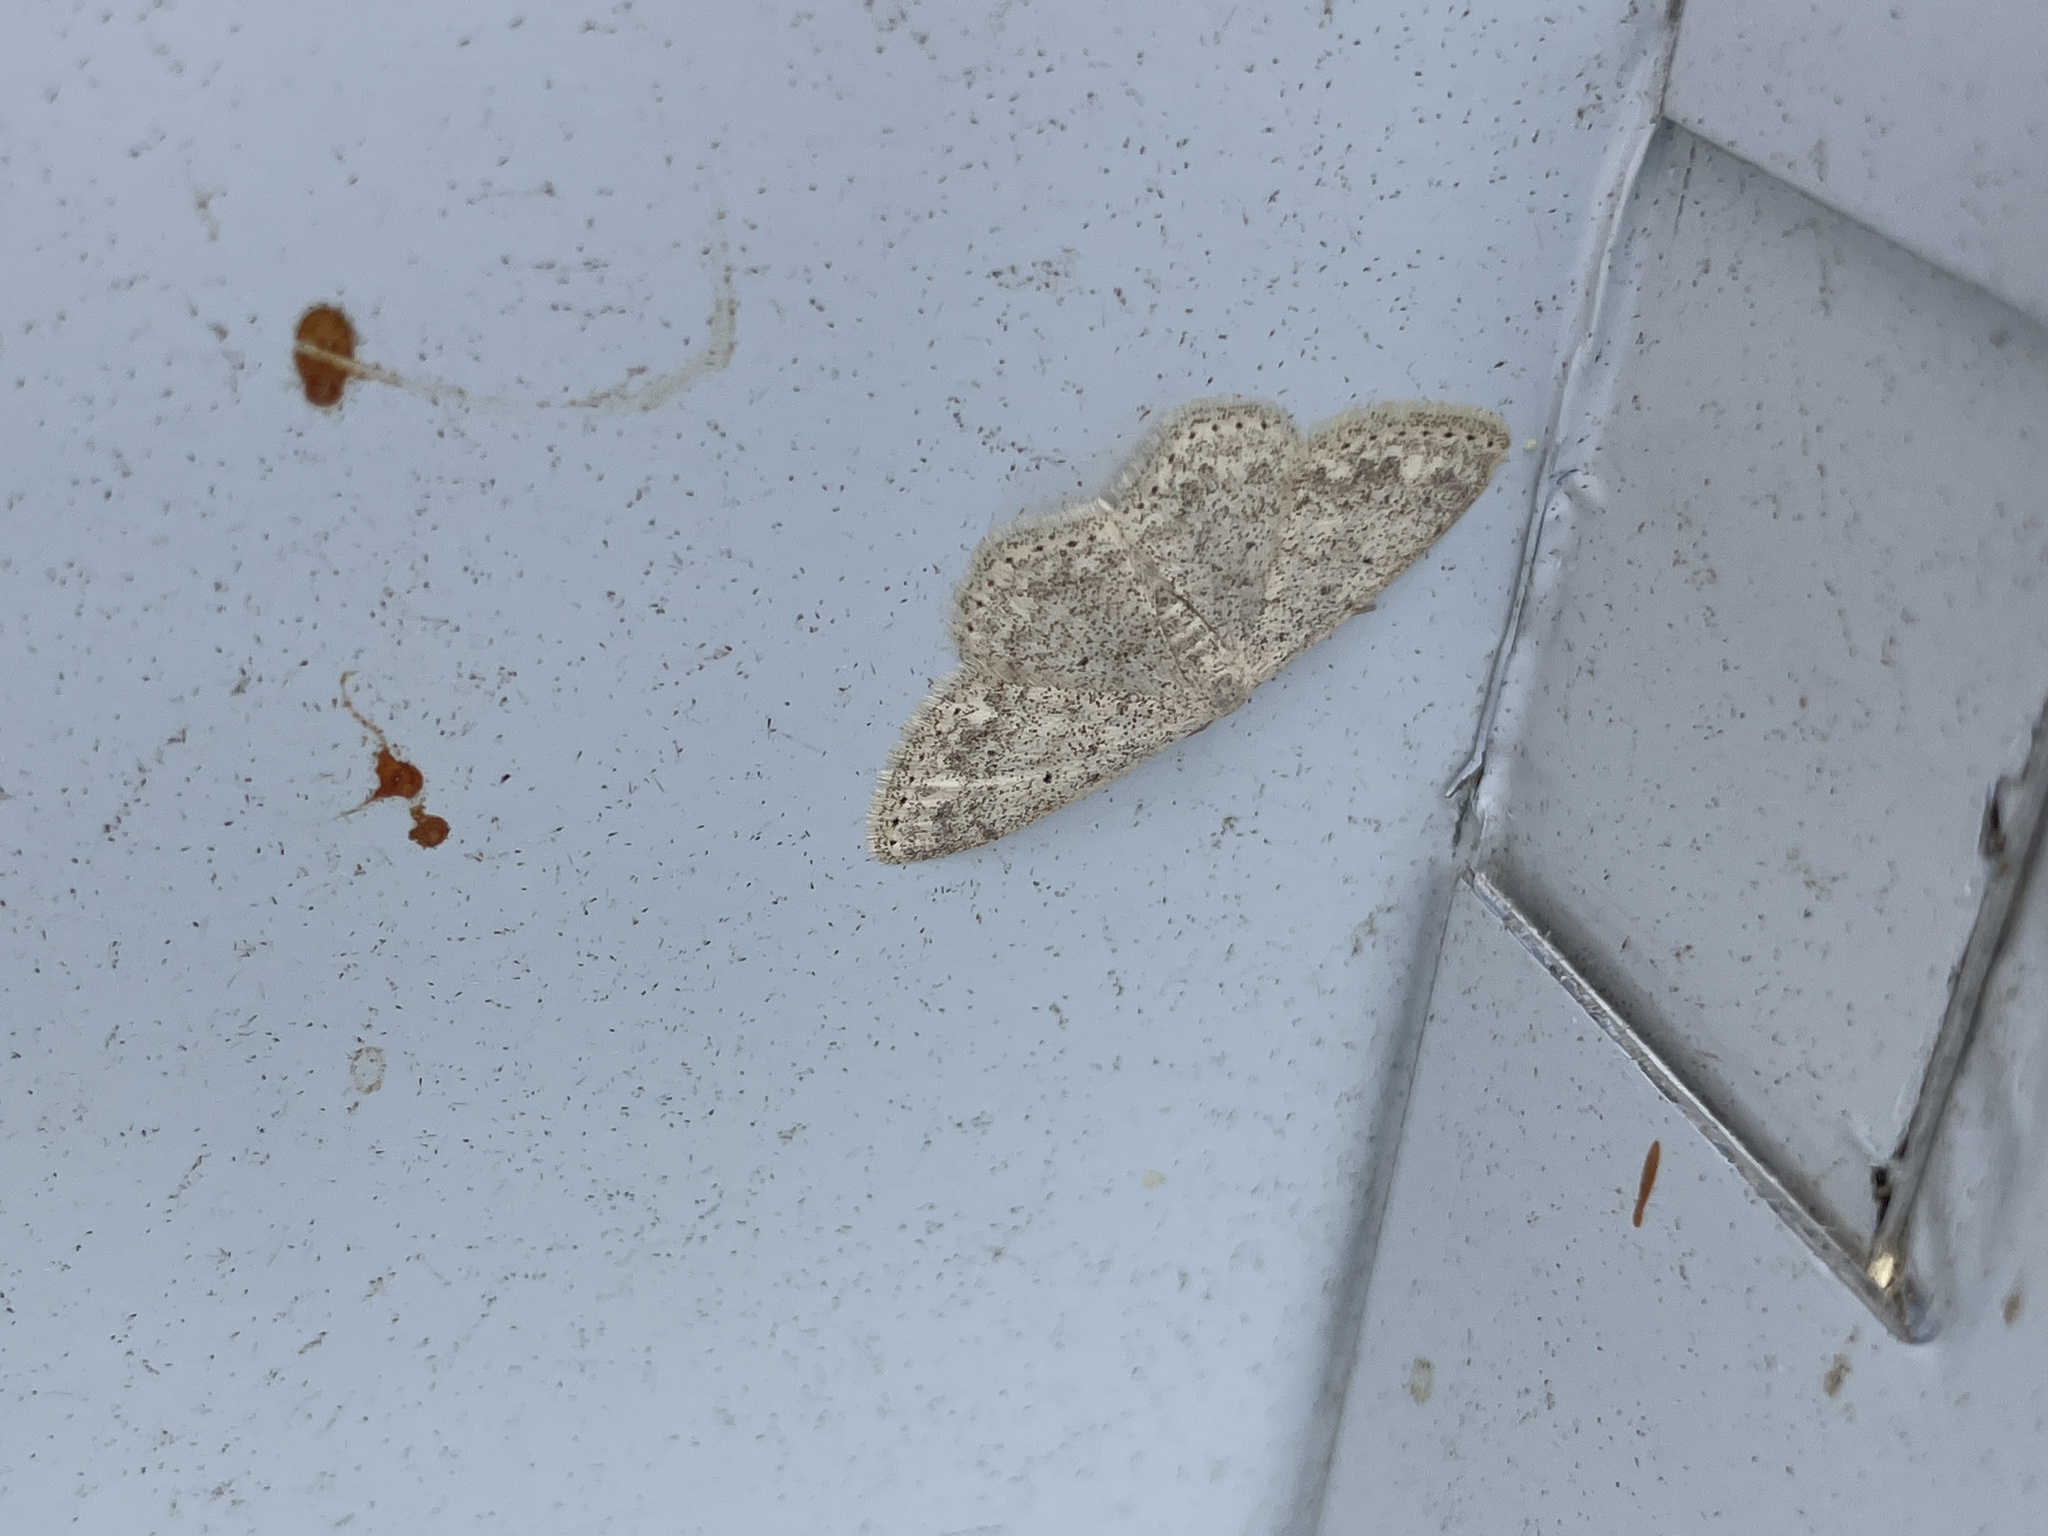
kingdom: Animalia
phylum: Arthropoda
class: Insecta
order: Lepidoptera
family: Geometridae
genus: Scopula
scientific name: Scopula marginepunctata
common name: Mullein wave
